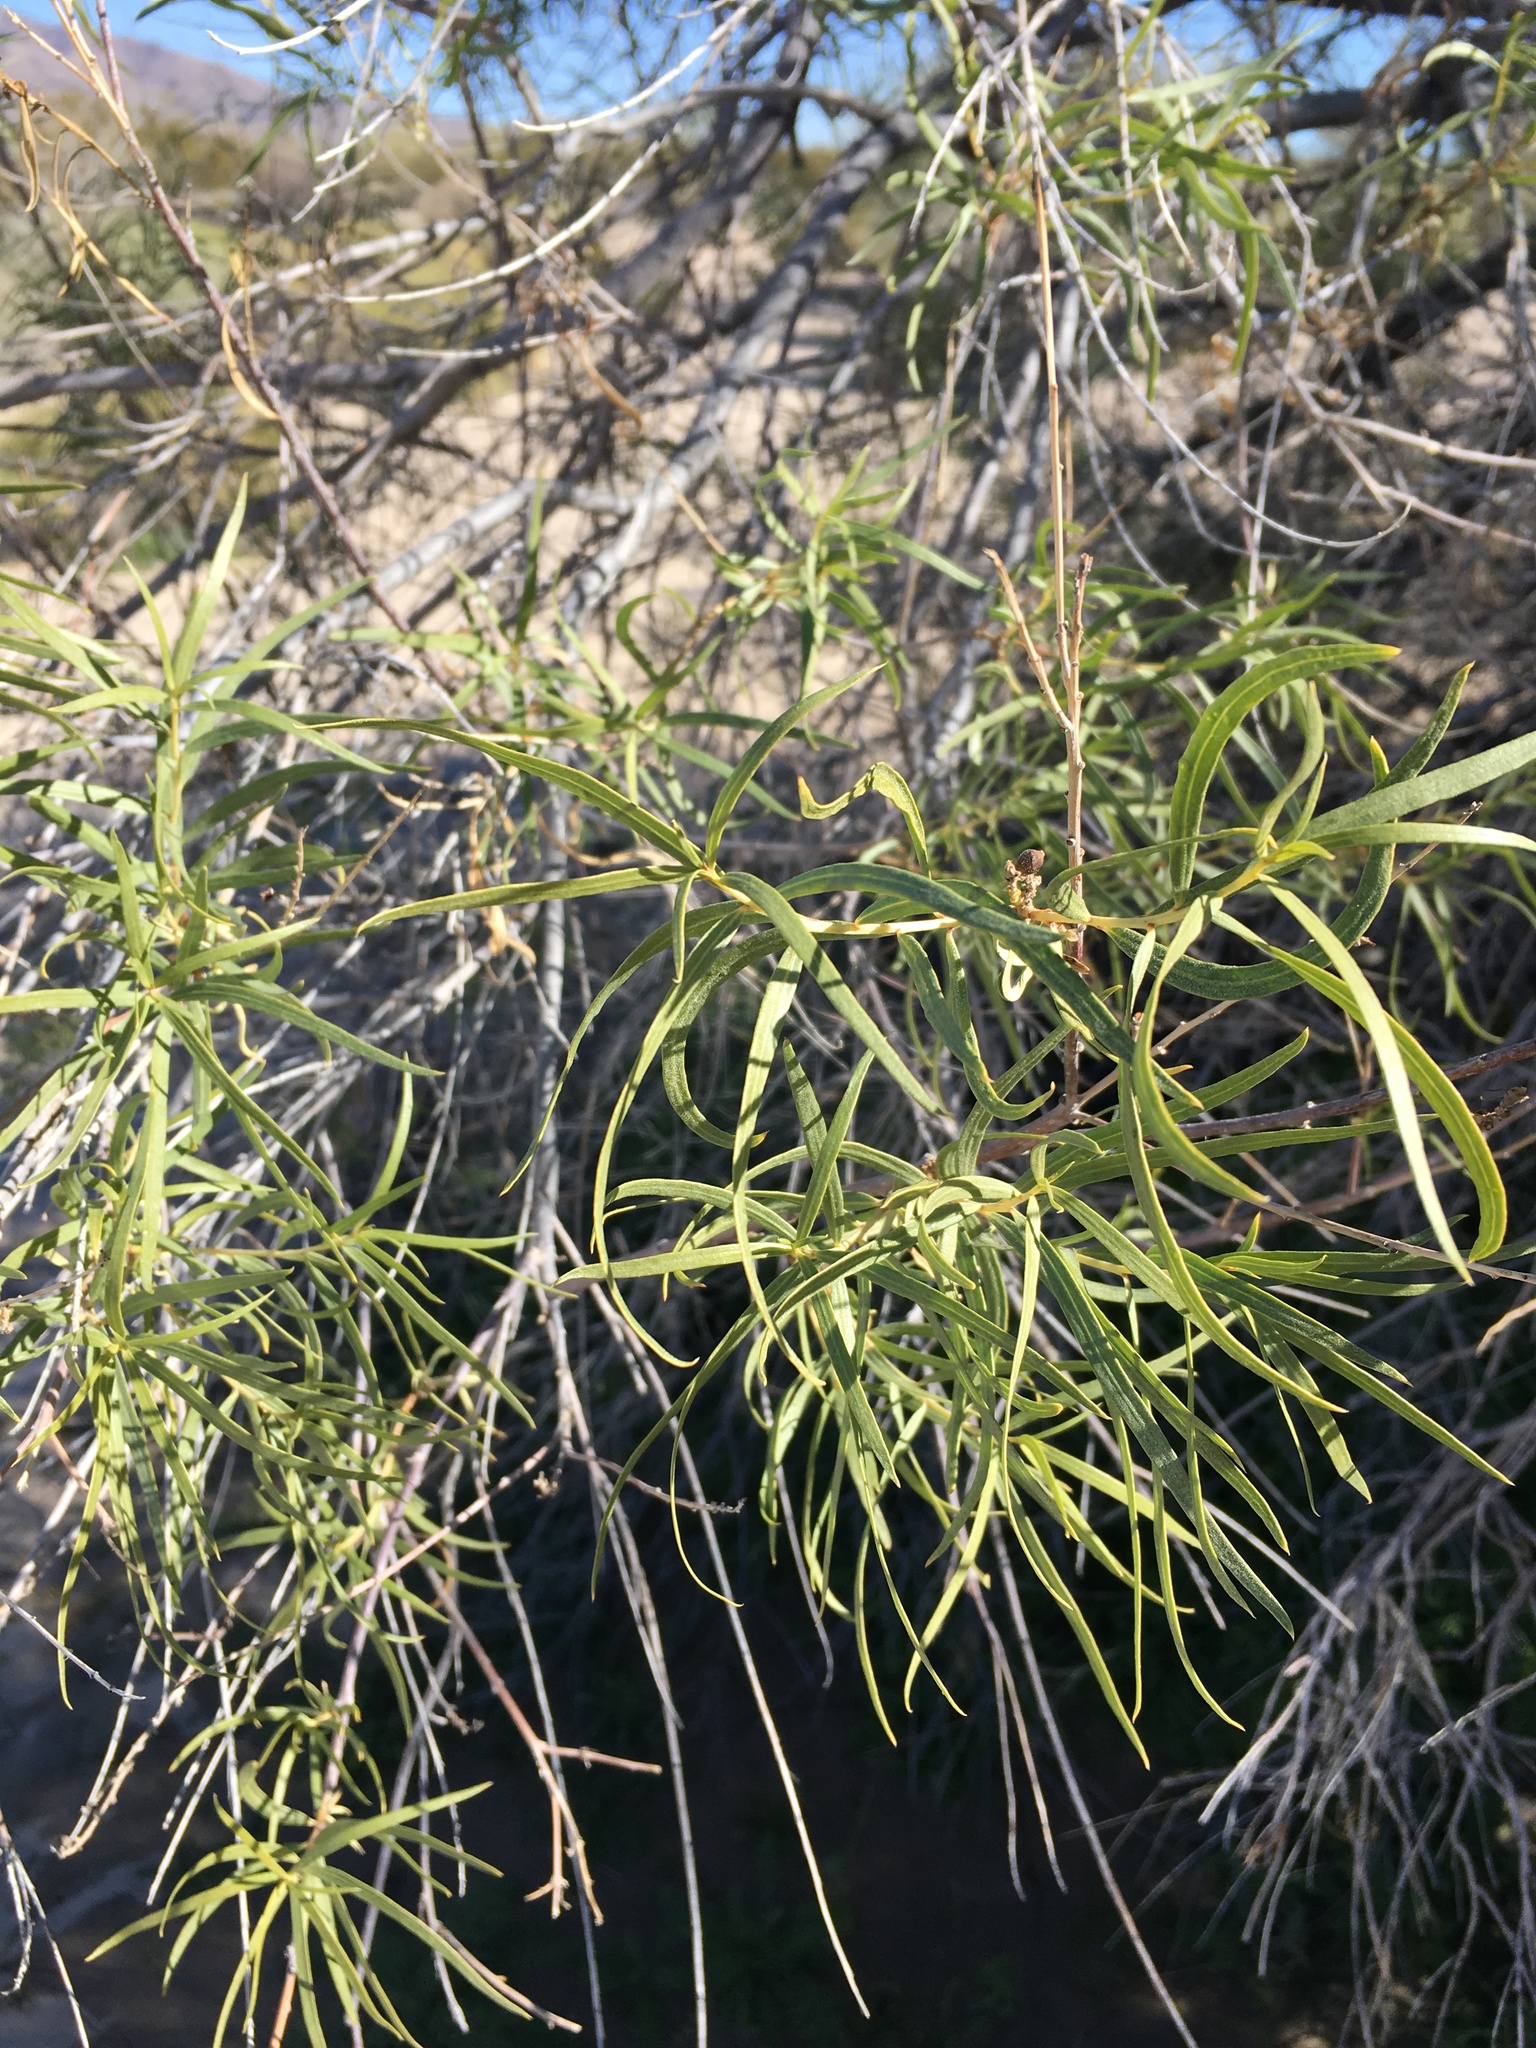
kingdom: Plantae
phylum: Tracheophyta
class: Magnoliopsida
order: Lamiales
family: Bignoniaceae
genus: Chilopsis
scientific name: Chilopsis linearis
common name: Desert-willow
